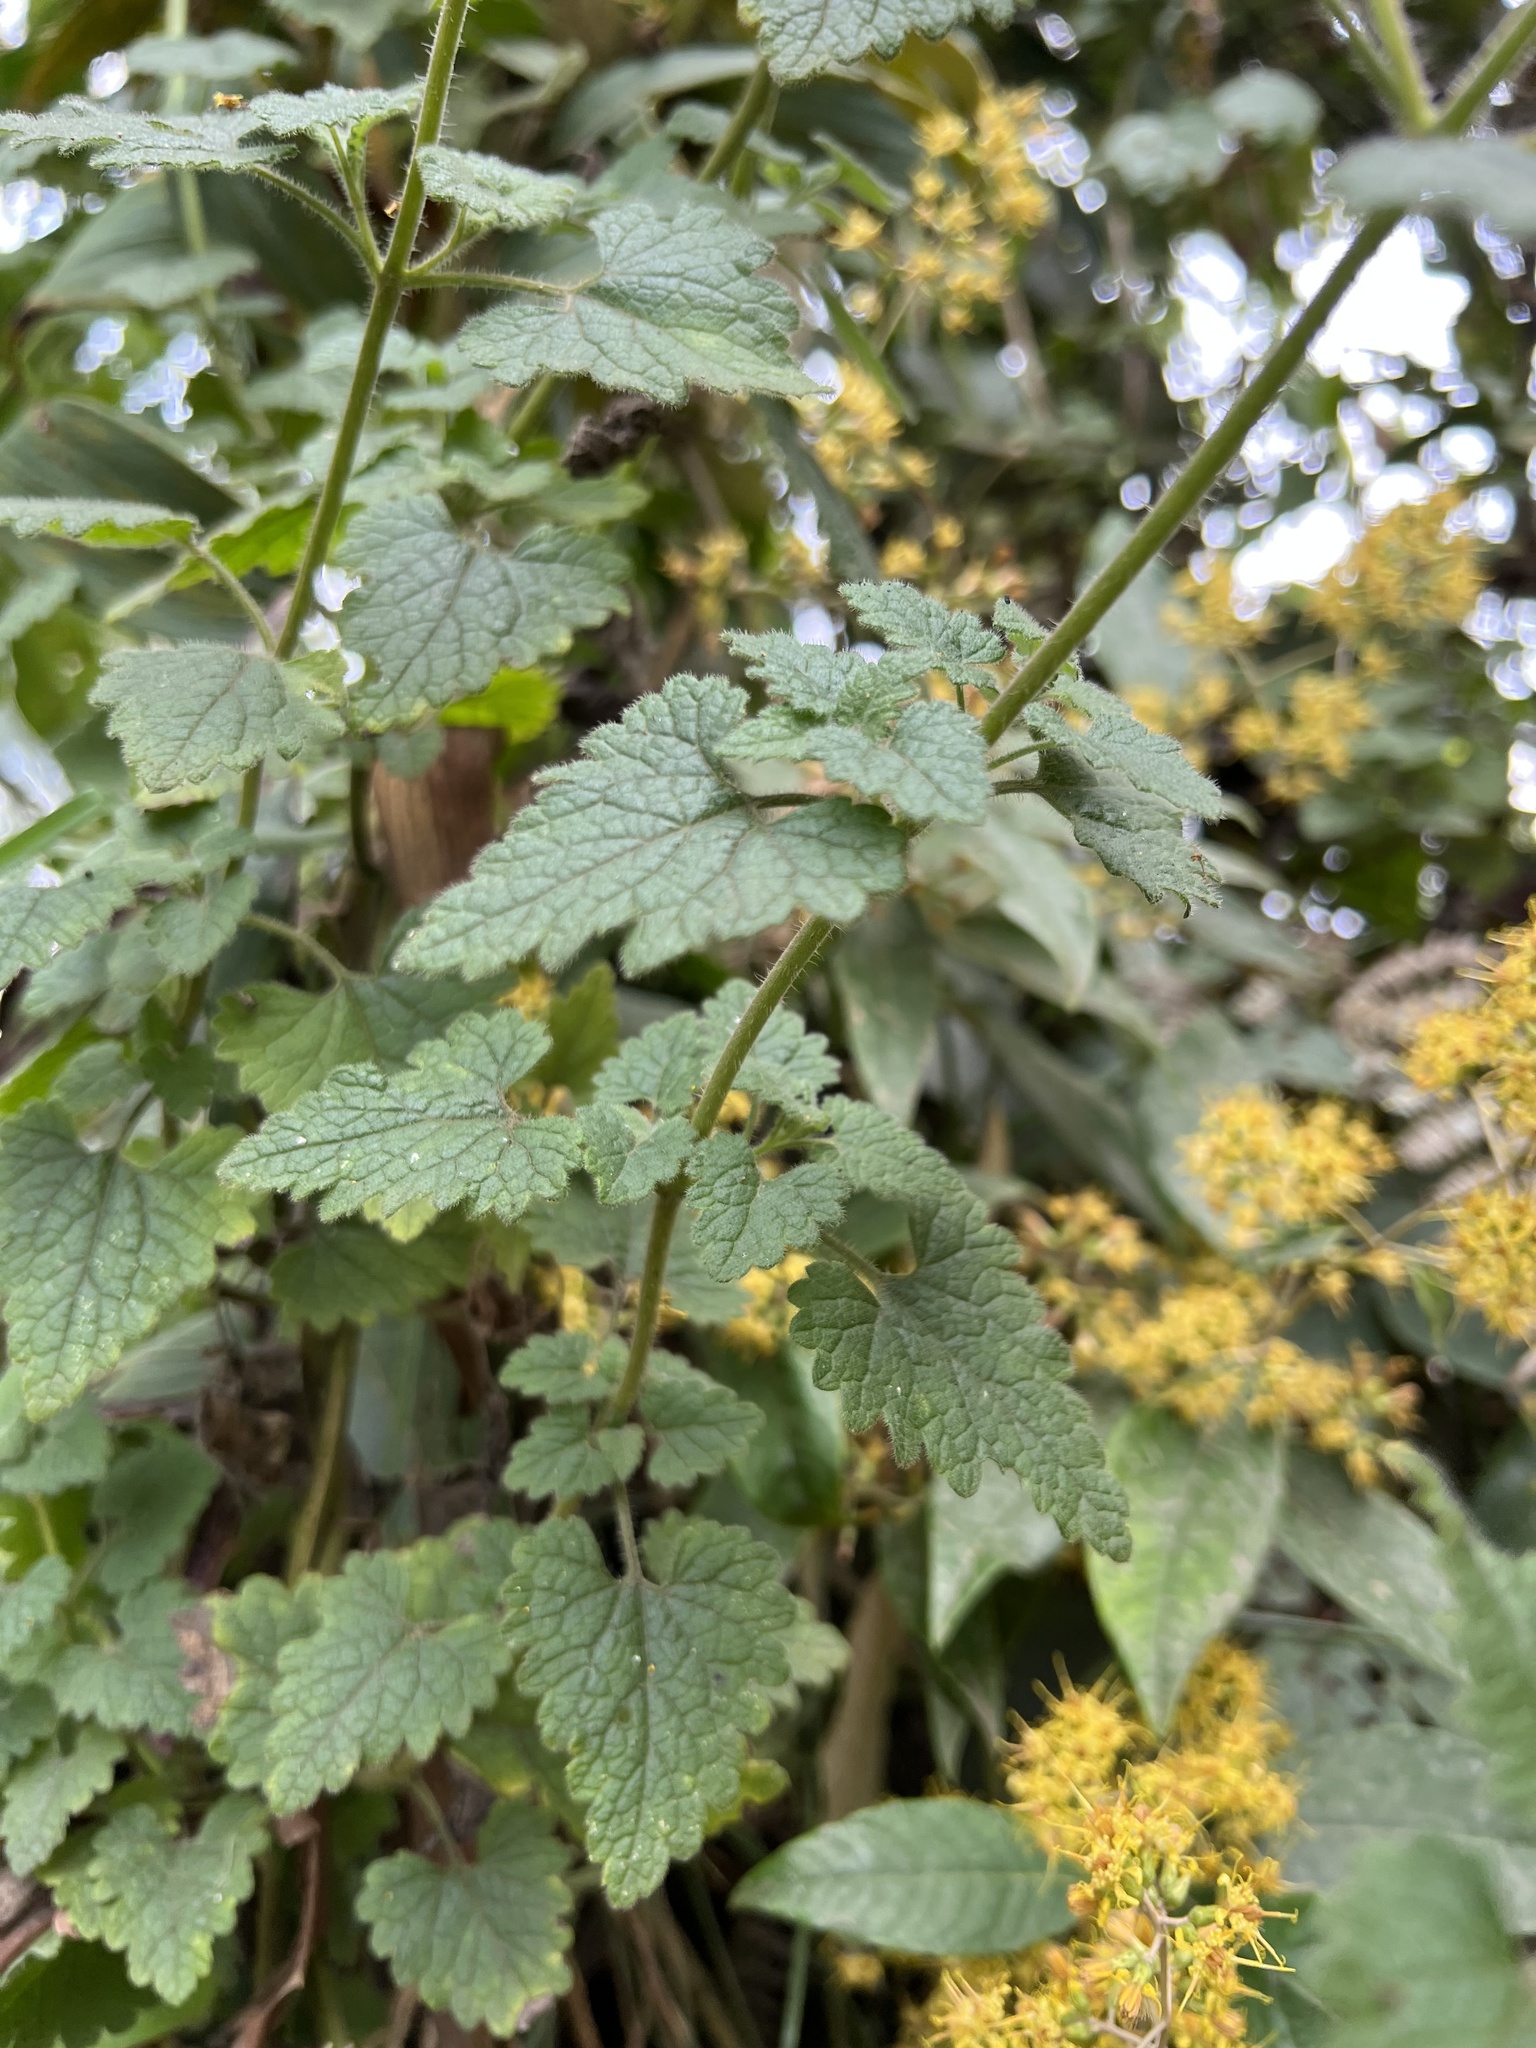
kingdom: Plantae
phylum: Tracheophyta
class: Magnoliopsida
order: Asterales
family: Asteraceae
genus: Lourteigia
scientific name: Lourteigia ballotifolia
